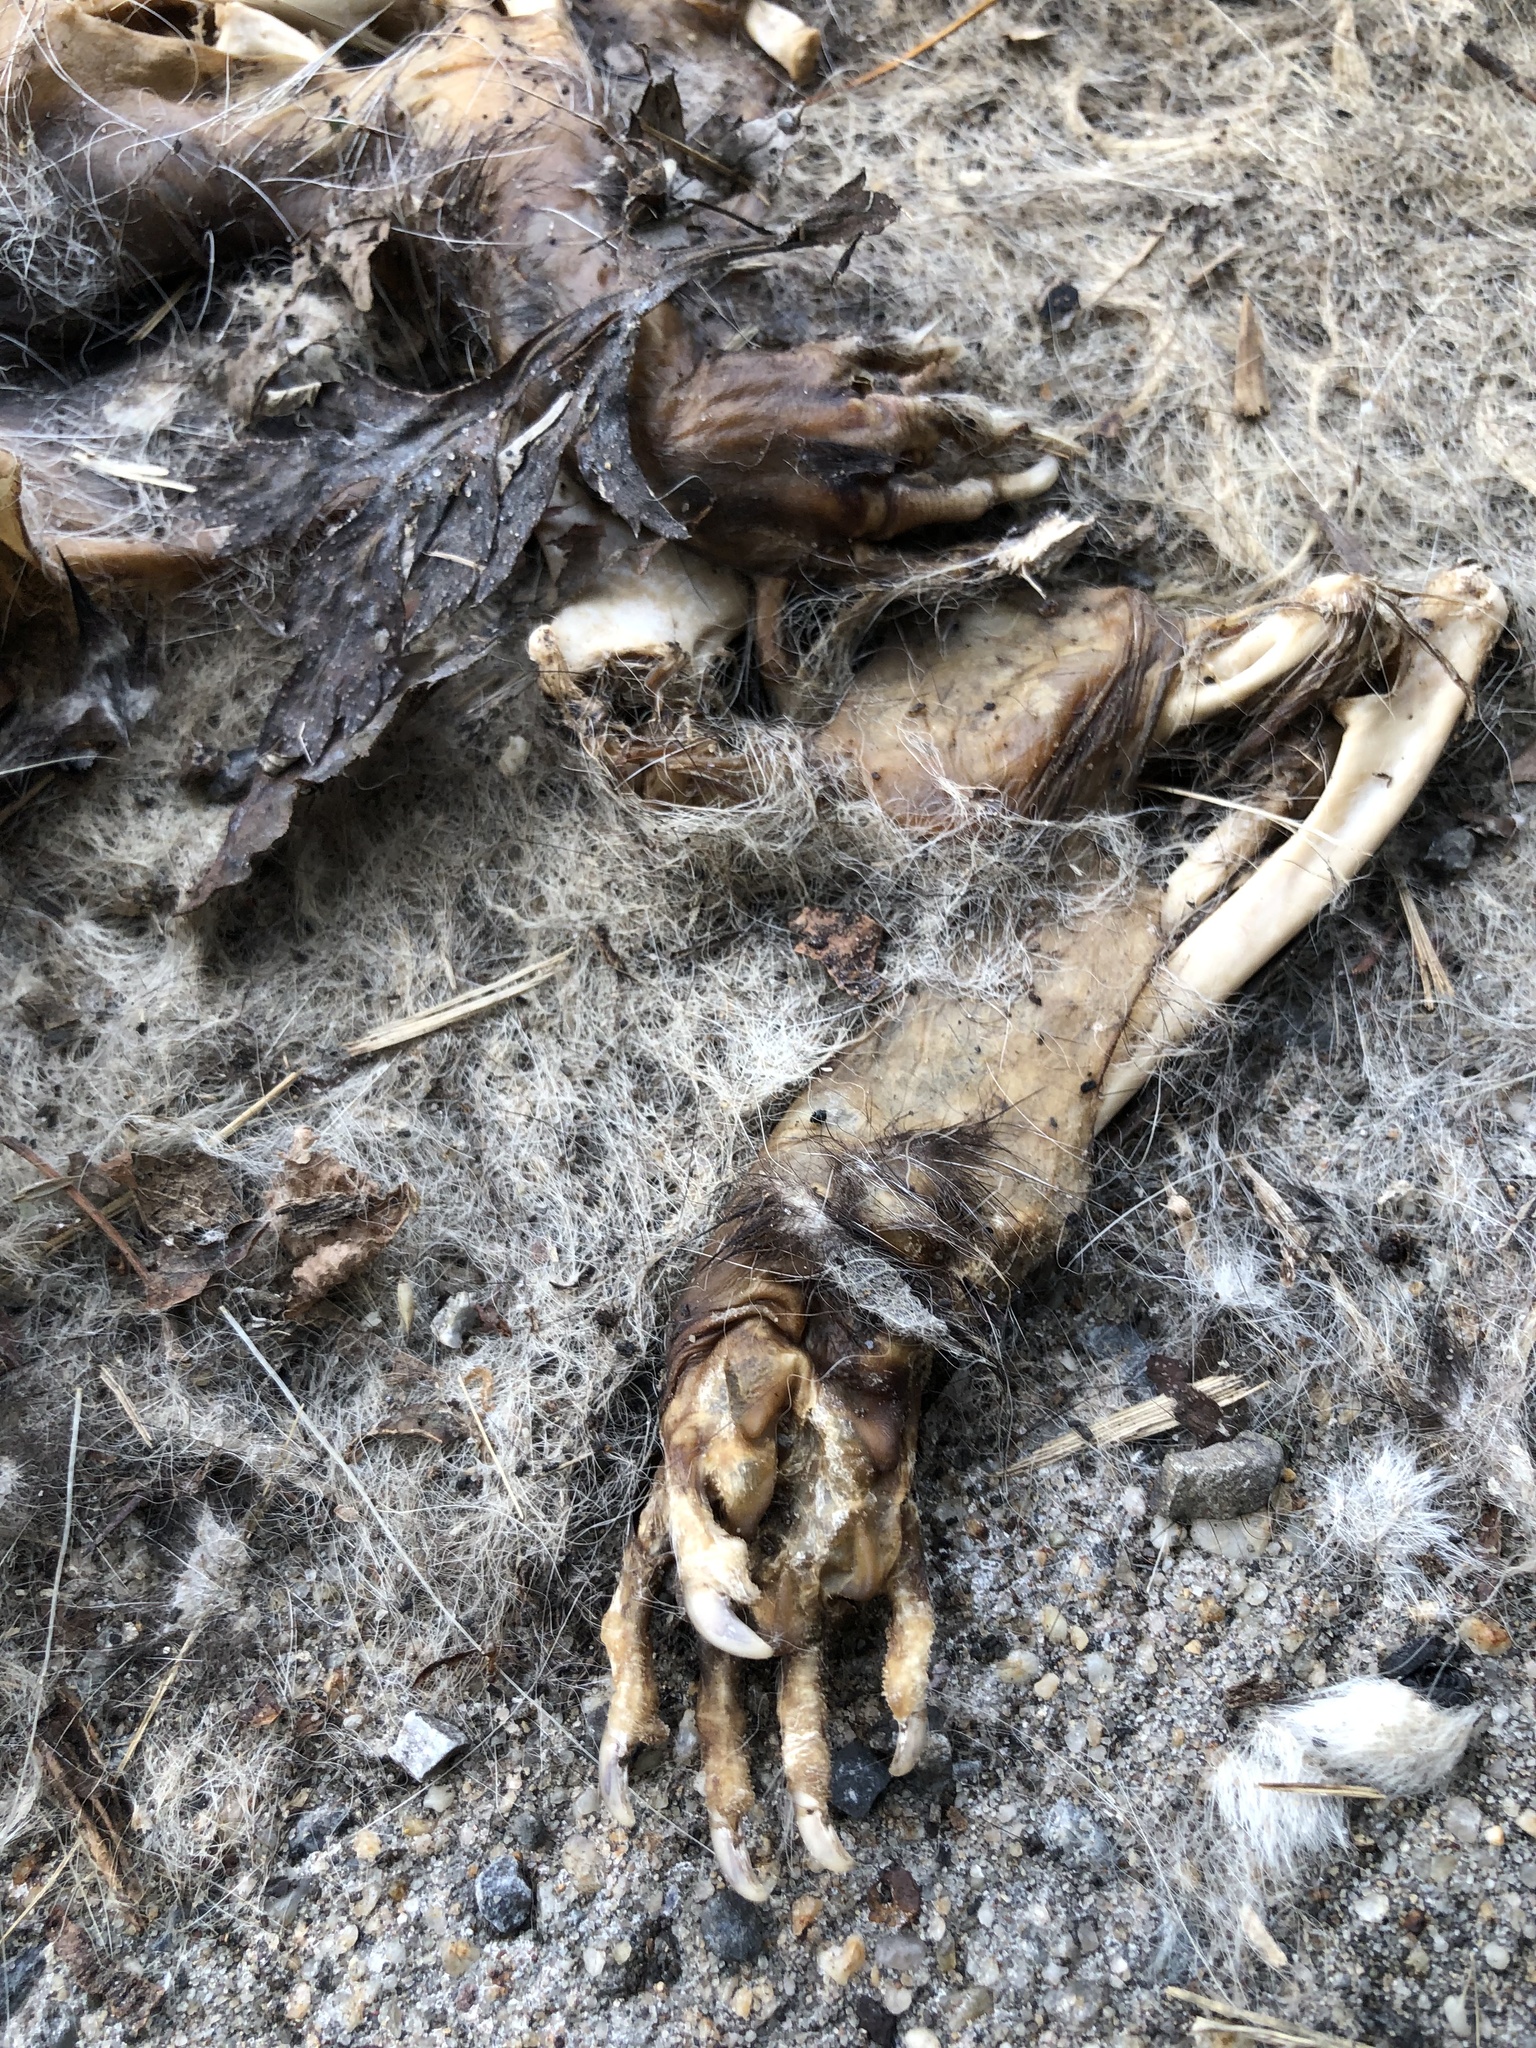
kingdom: Animalia
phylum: Chordata
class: Mammalia
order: Didelphimorphia
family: Didelphidae
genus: Didelphis
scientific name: Didelphis virginiana
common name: Virginia opossum
